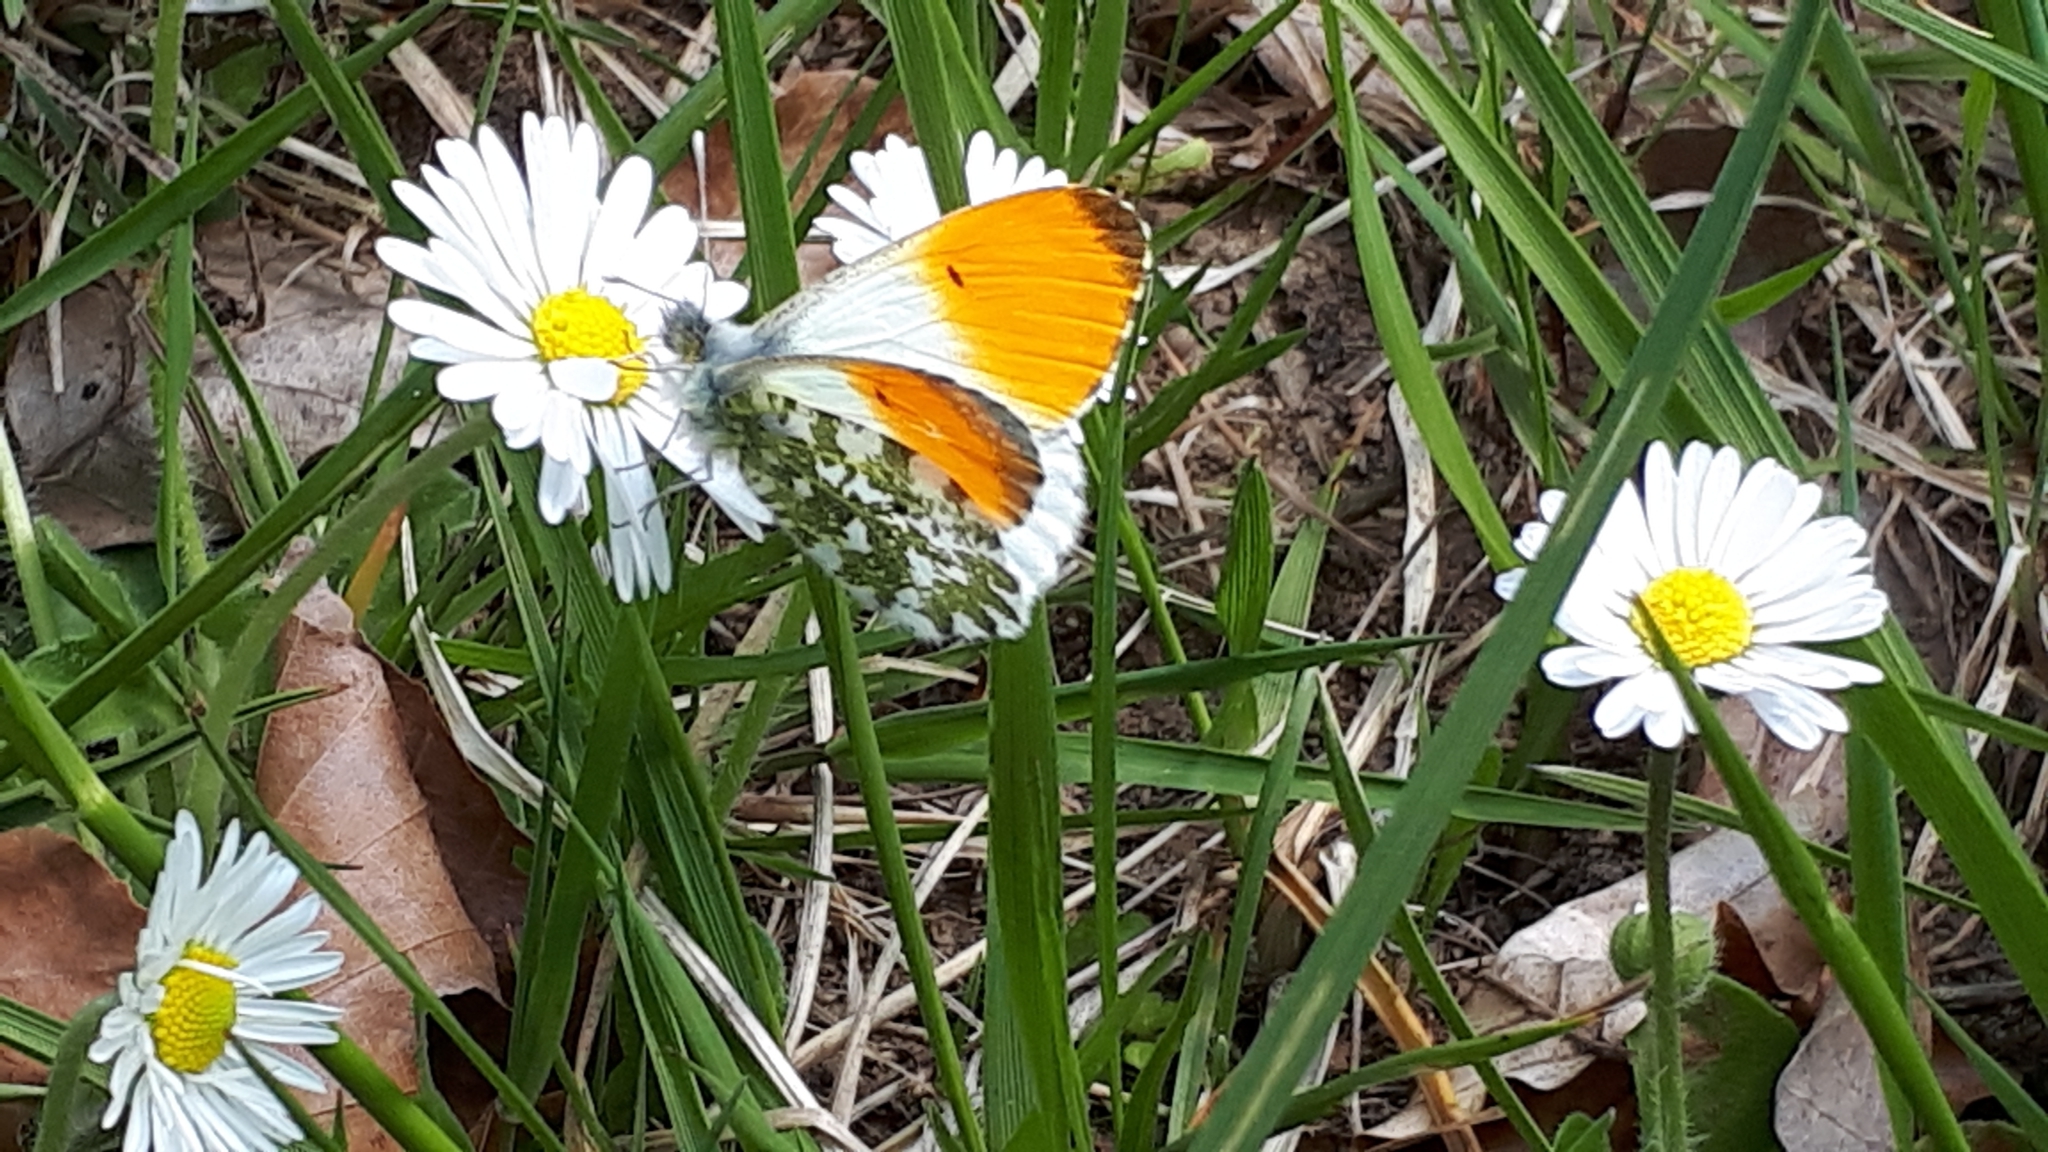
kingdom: Animalia
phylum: Arthropoda
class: Insecta
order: Lepidoptera
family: Pieridae
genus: Anthocharis
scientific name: Anthocharis cardamines
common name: Orange-tip
